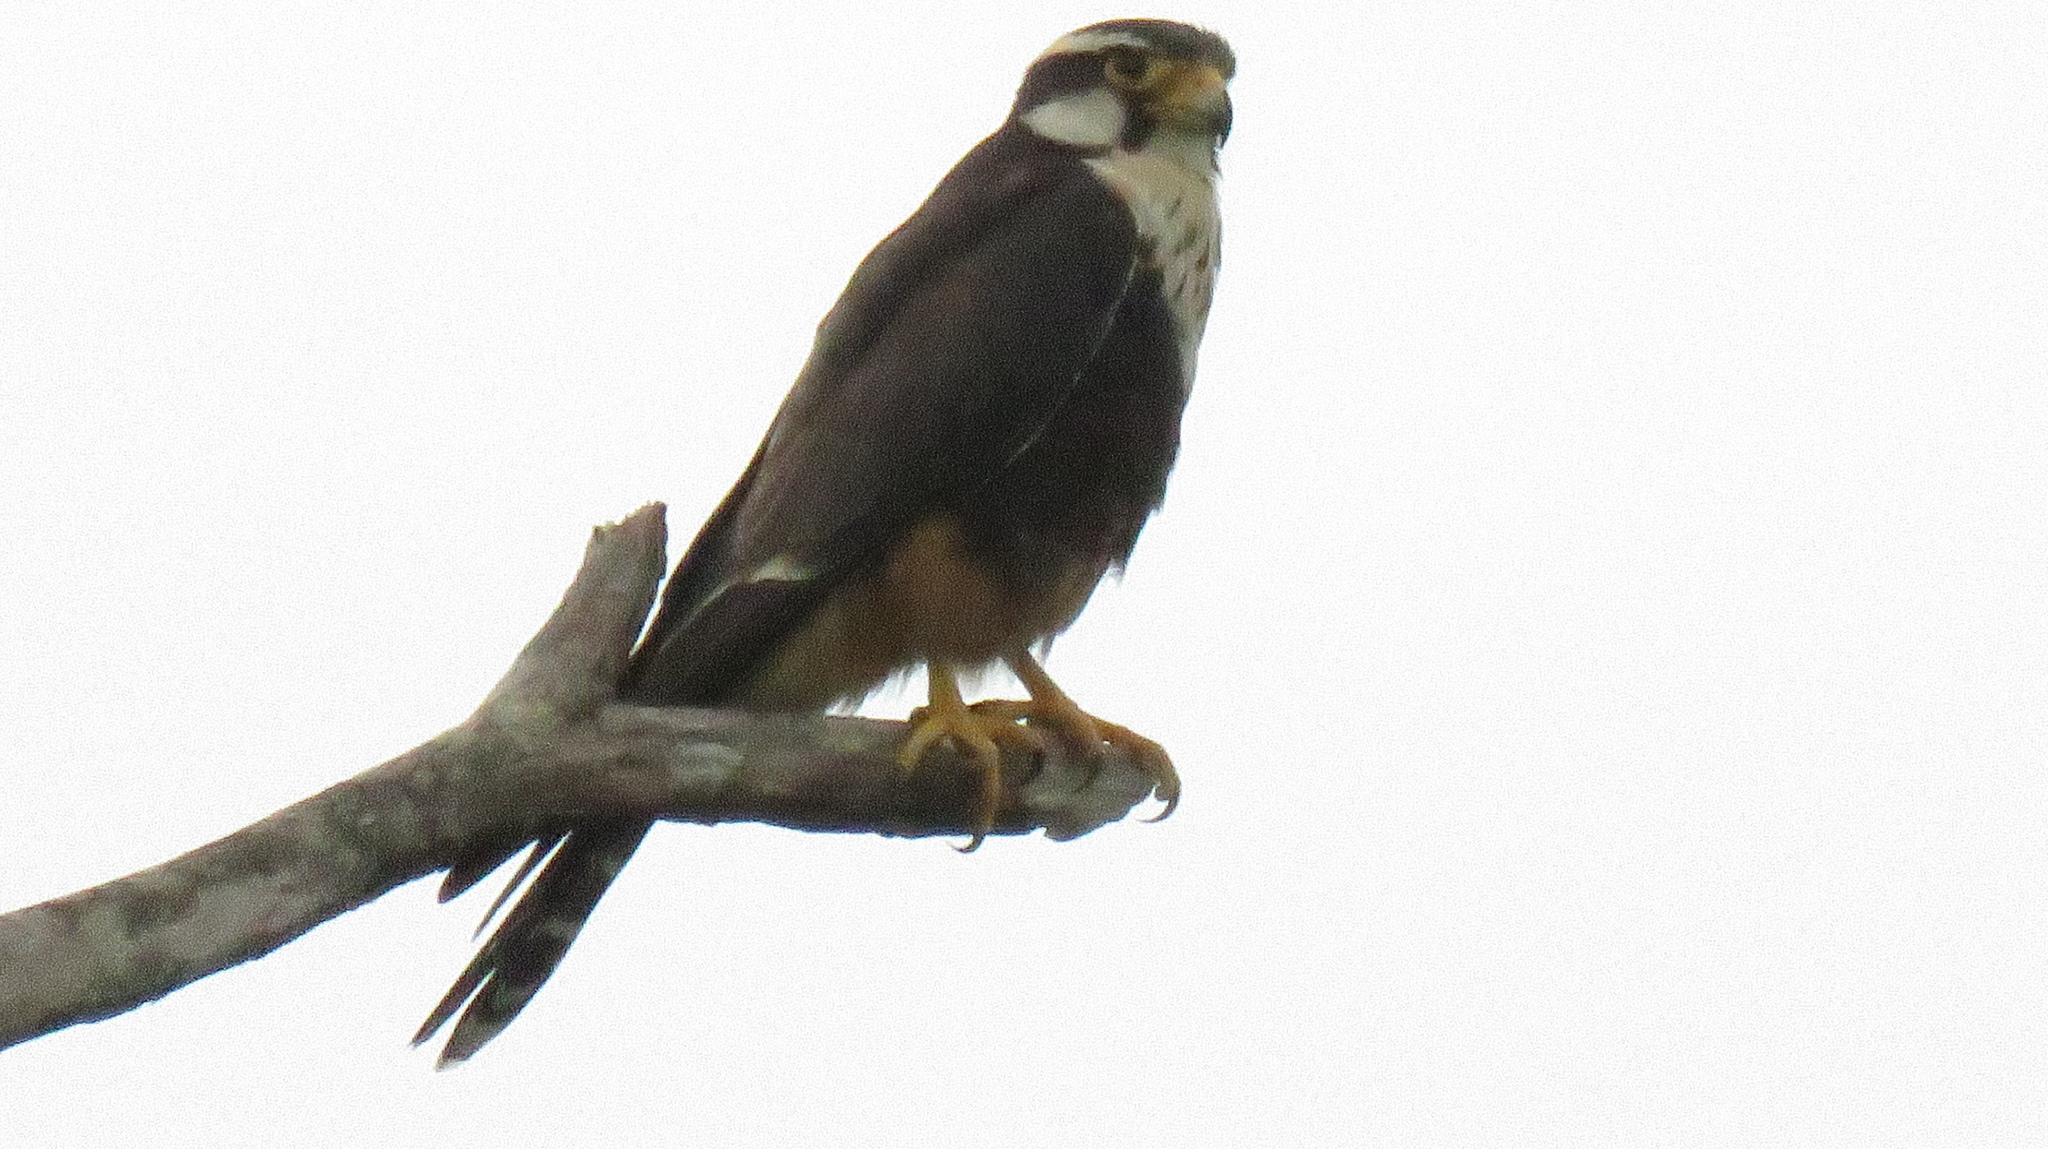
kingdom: Animalia
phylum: Chordata
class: Aves
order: Falconiformes
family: Falconidae
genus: Falco
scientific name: Falco femoralis
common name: Aplomado falcon
